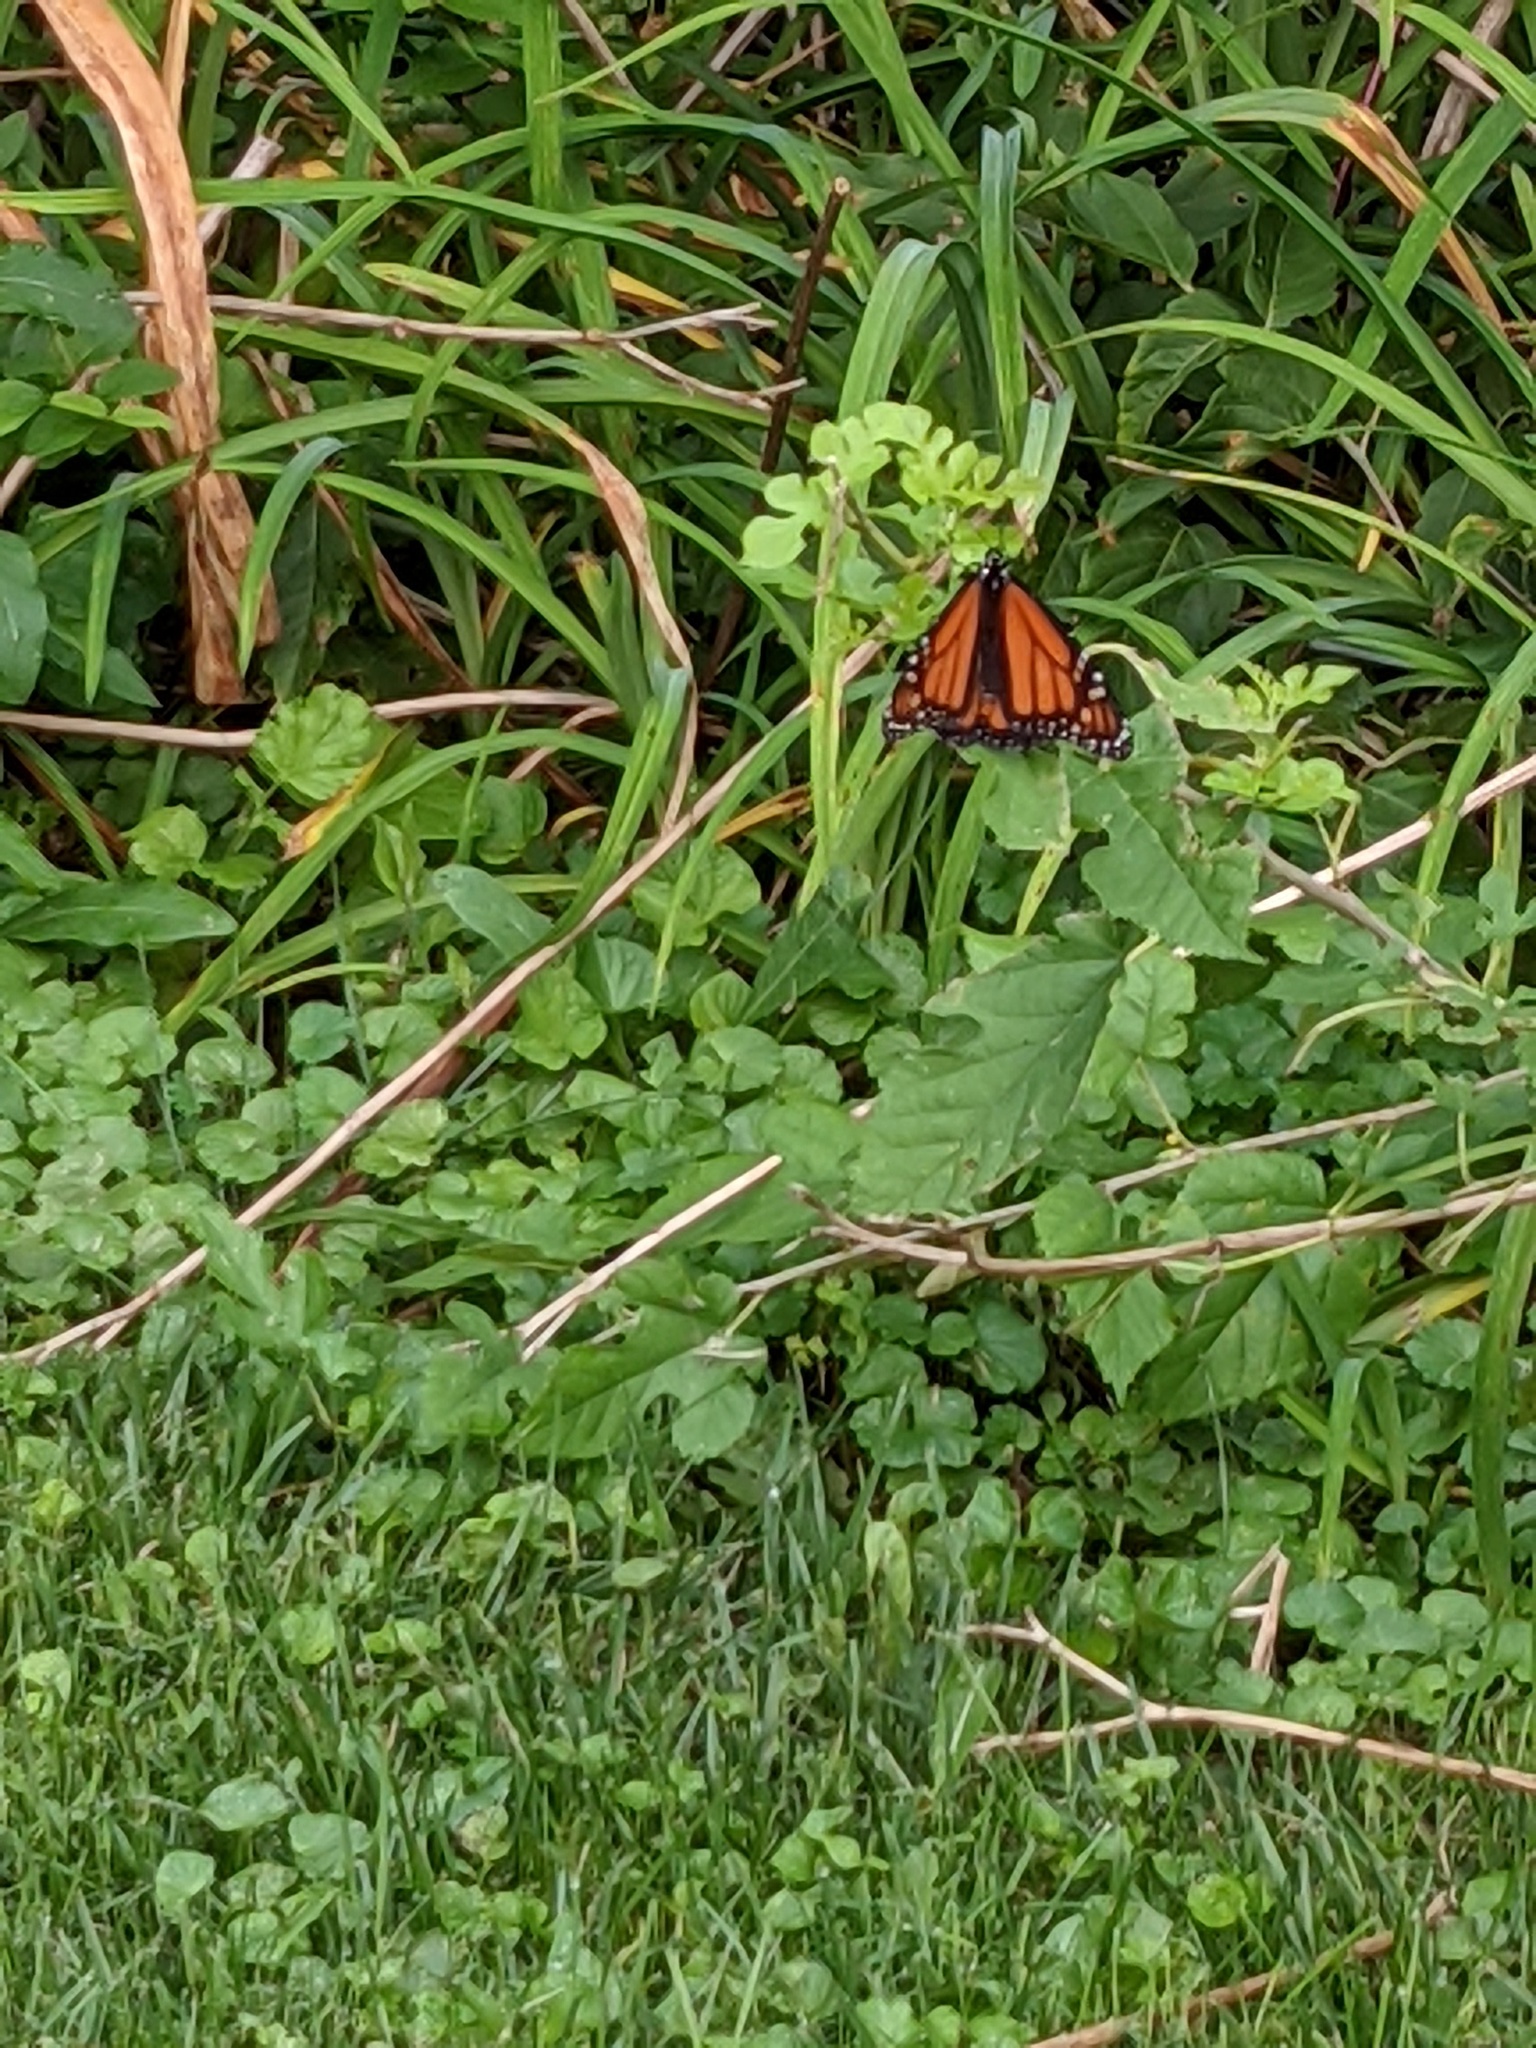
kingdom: Animalia
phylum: Arthropoda
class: Insecta
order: Lepidoptera
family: Nymphalidae
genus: Danaus
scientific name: Danaus plexippus
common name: Monarch
